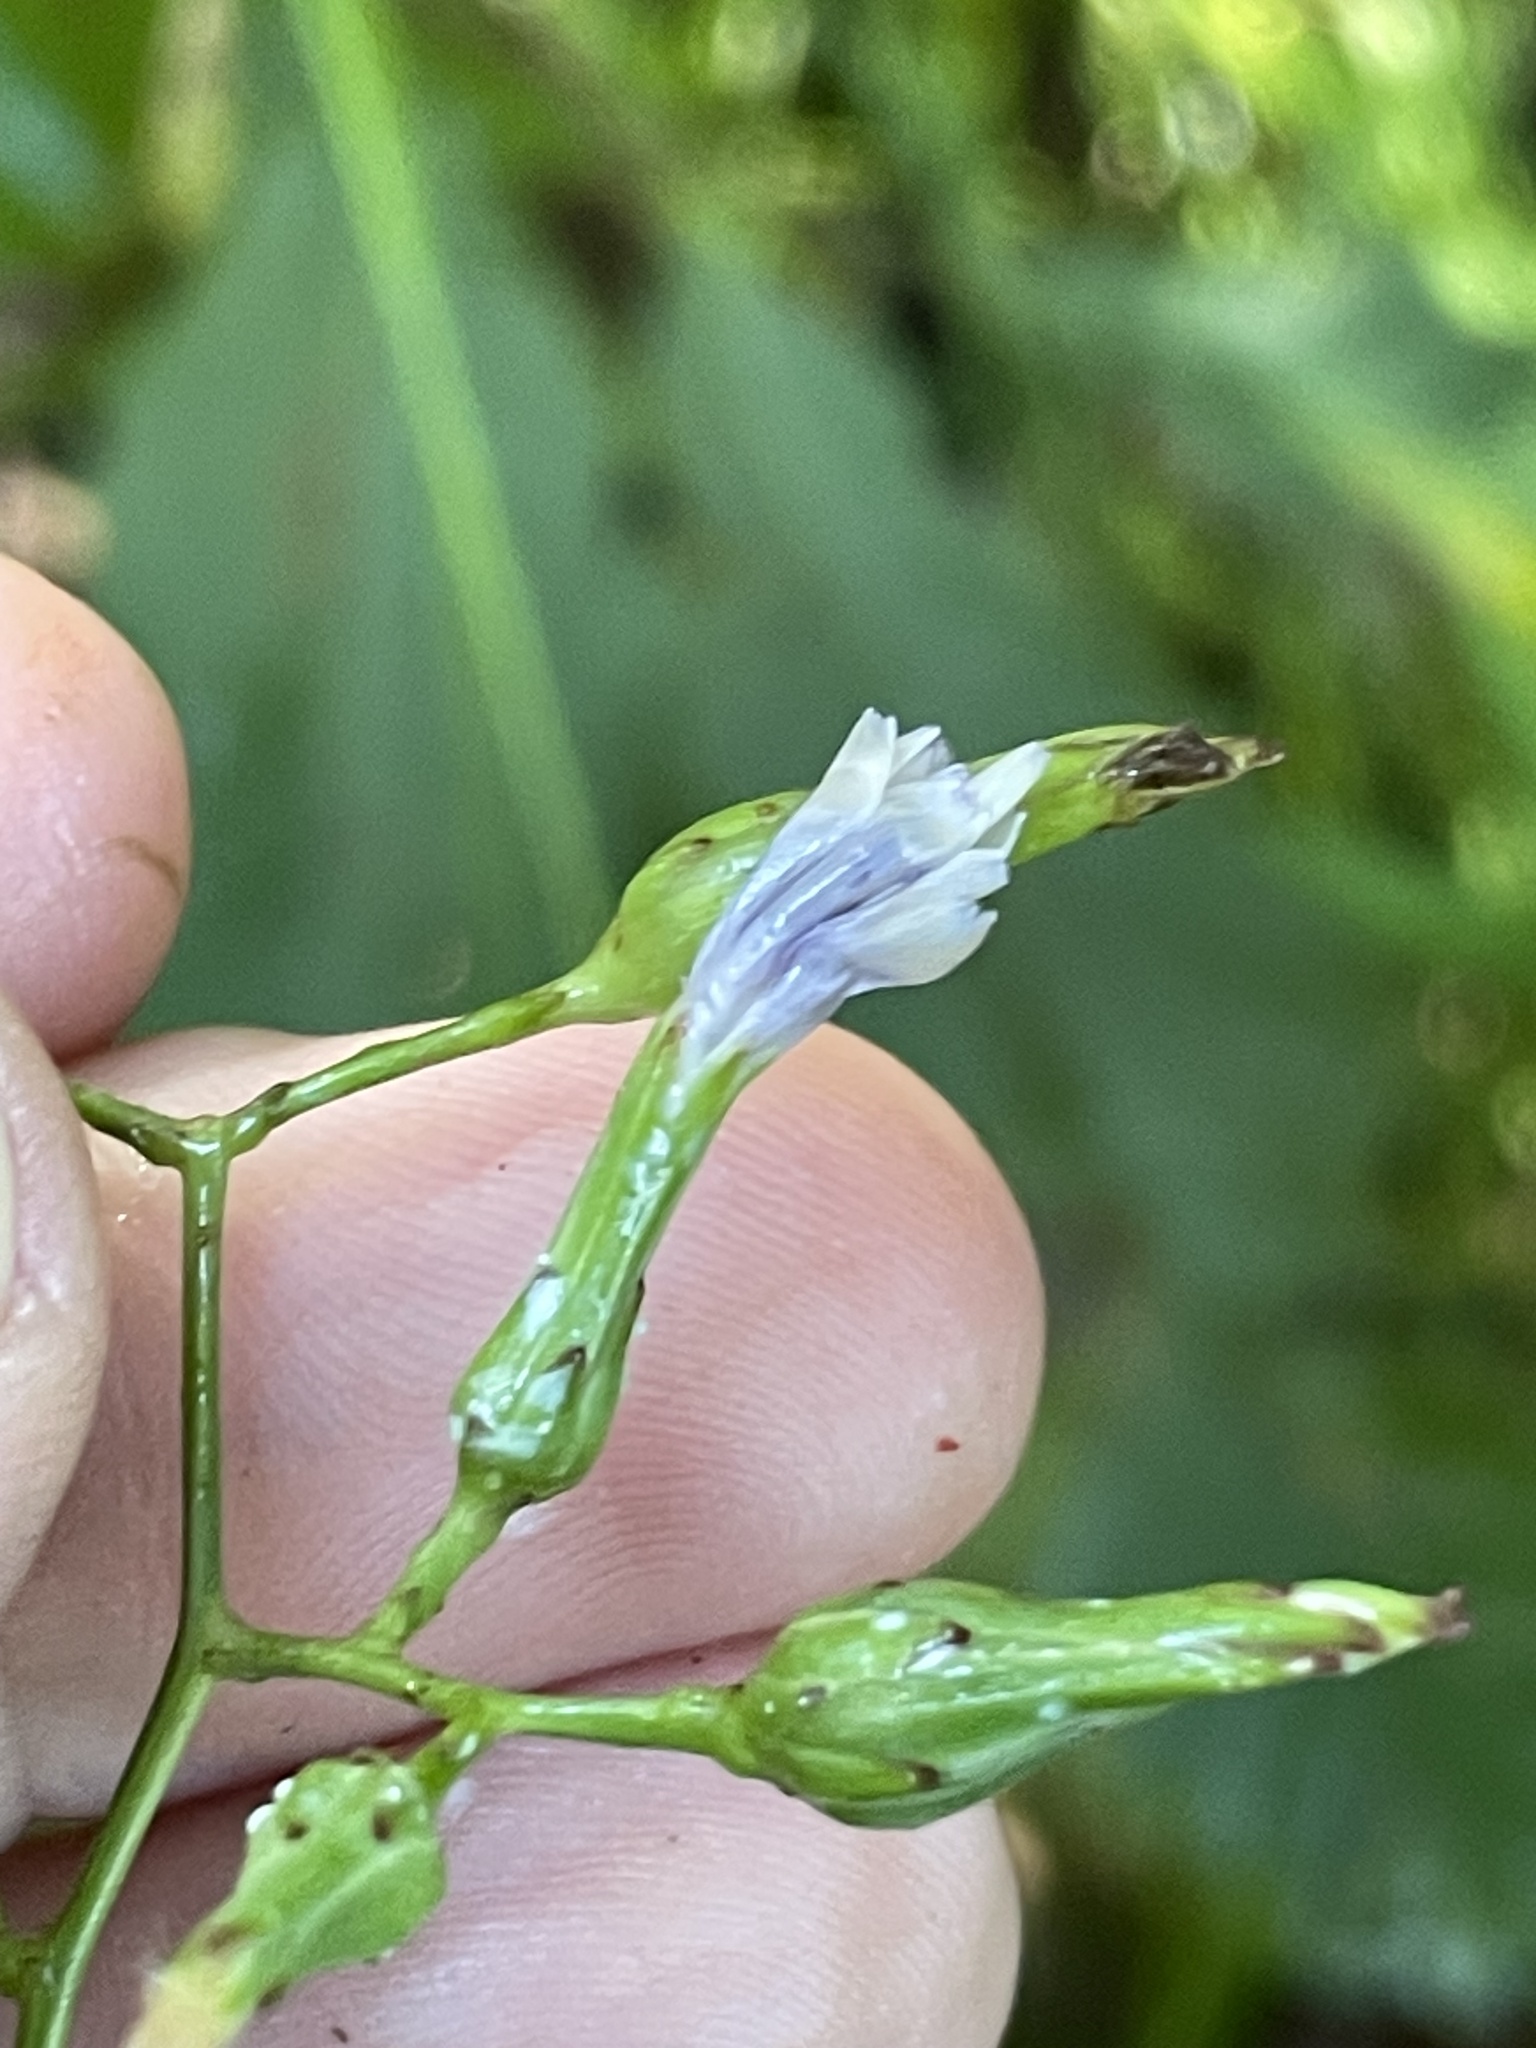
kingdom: Plantae
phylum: Tracheophyta
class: Magnoliopsida
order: Asterales
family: Asteraceae
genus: Lactuca
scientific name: Lactuca floridana
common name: Woodland lettuce
